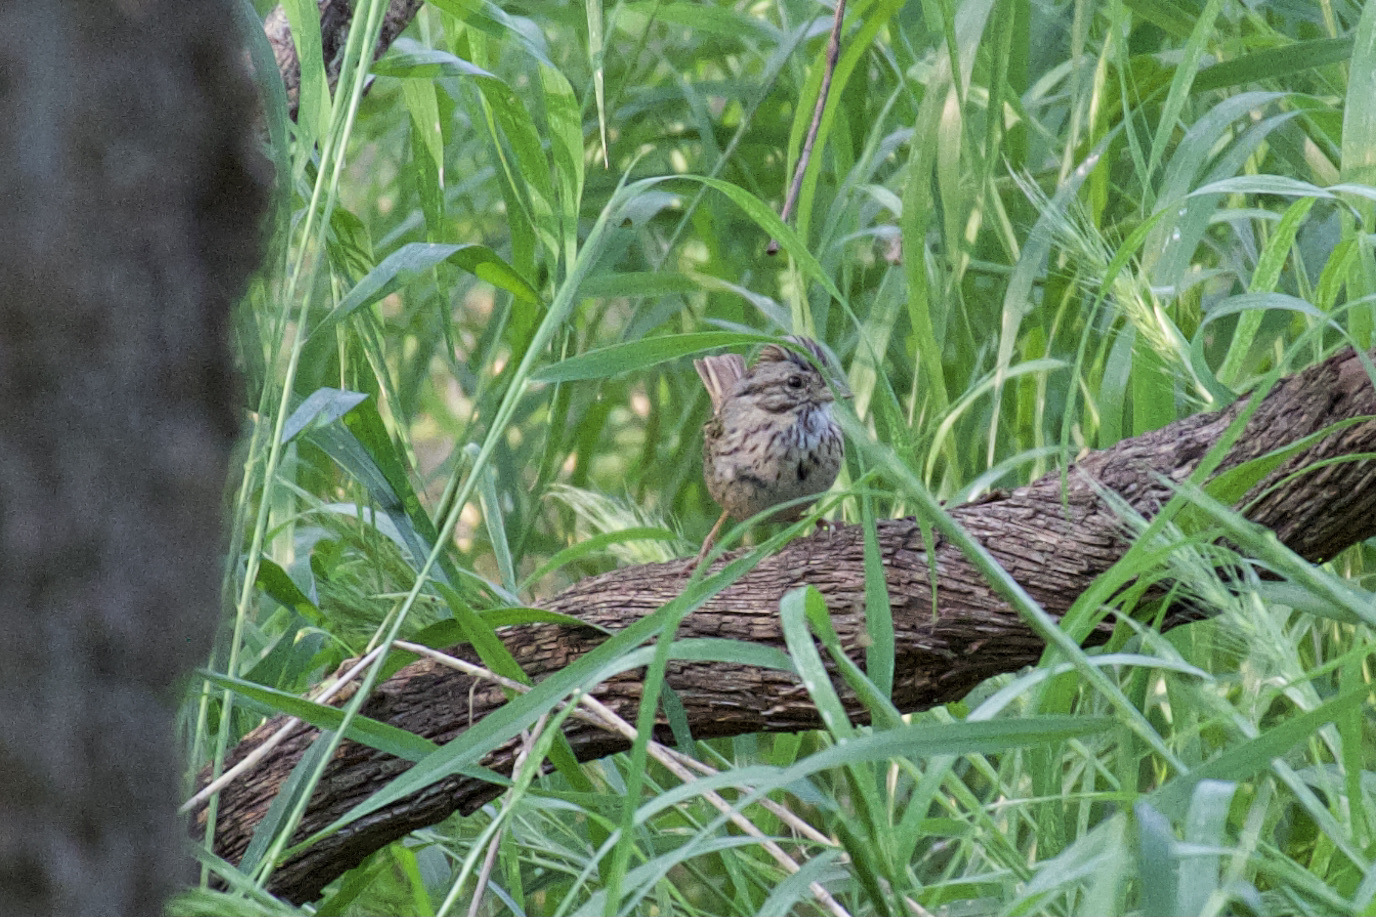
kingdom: Animalia
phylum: Chordata
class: Aves
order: Passeriformes
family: Passerellidae
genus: Melospiza
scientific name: Melospiza lincolnii
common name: Lincoln's sparrow
